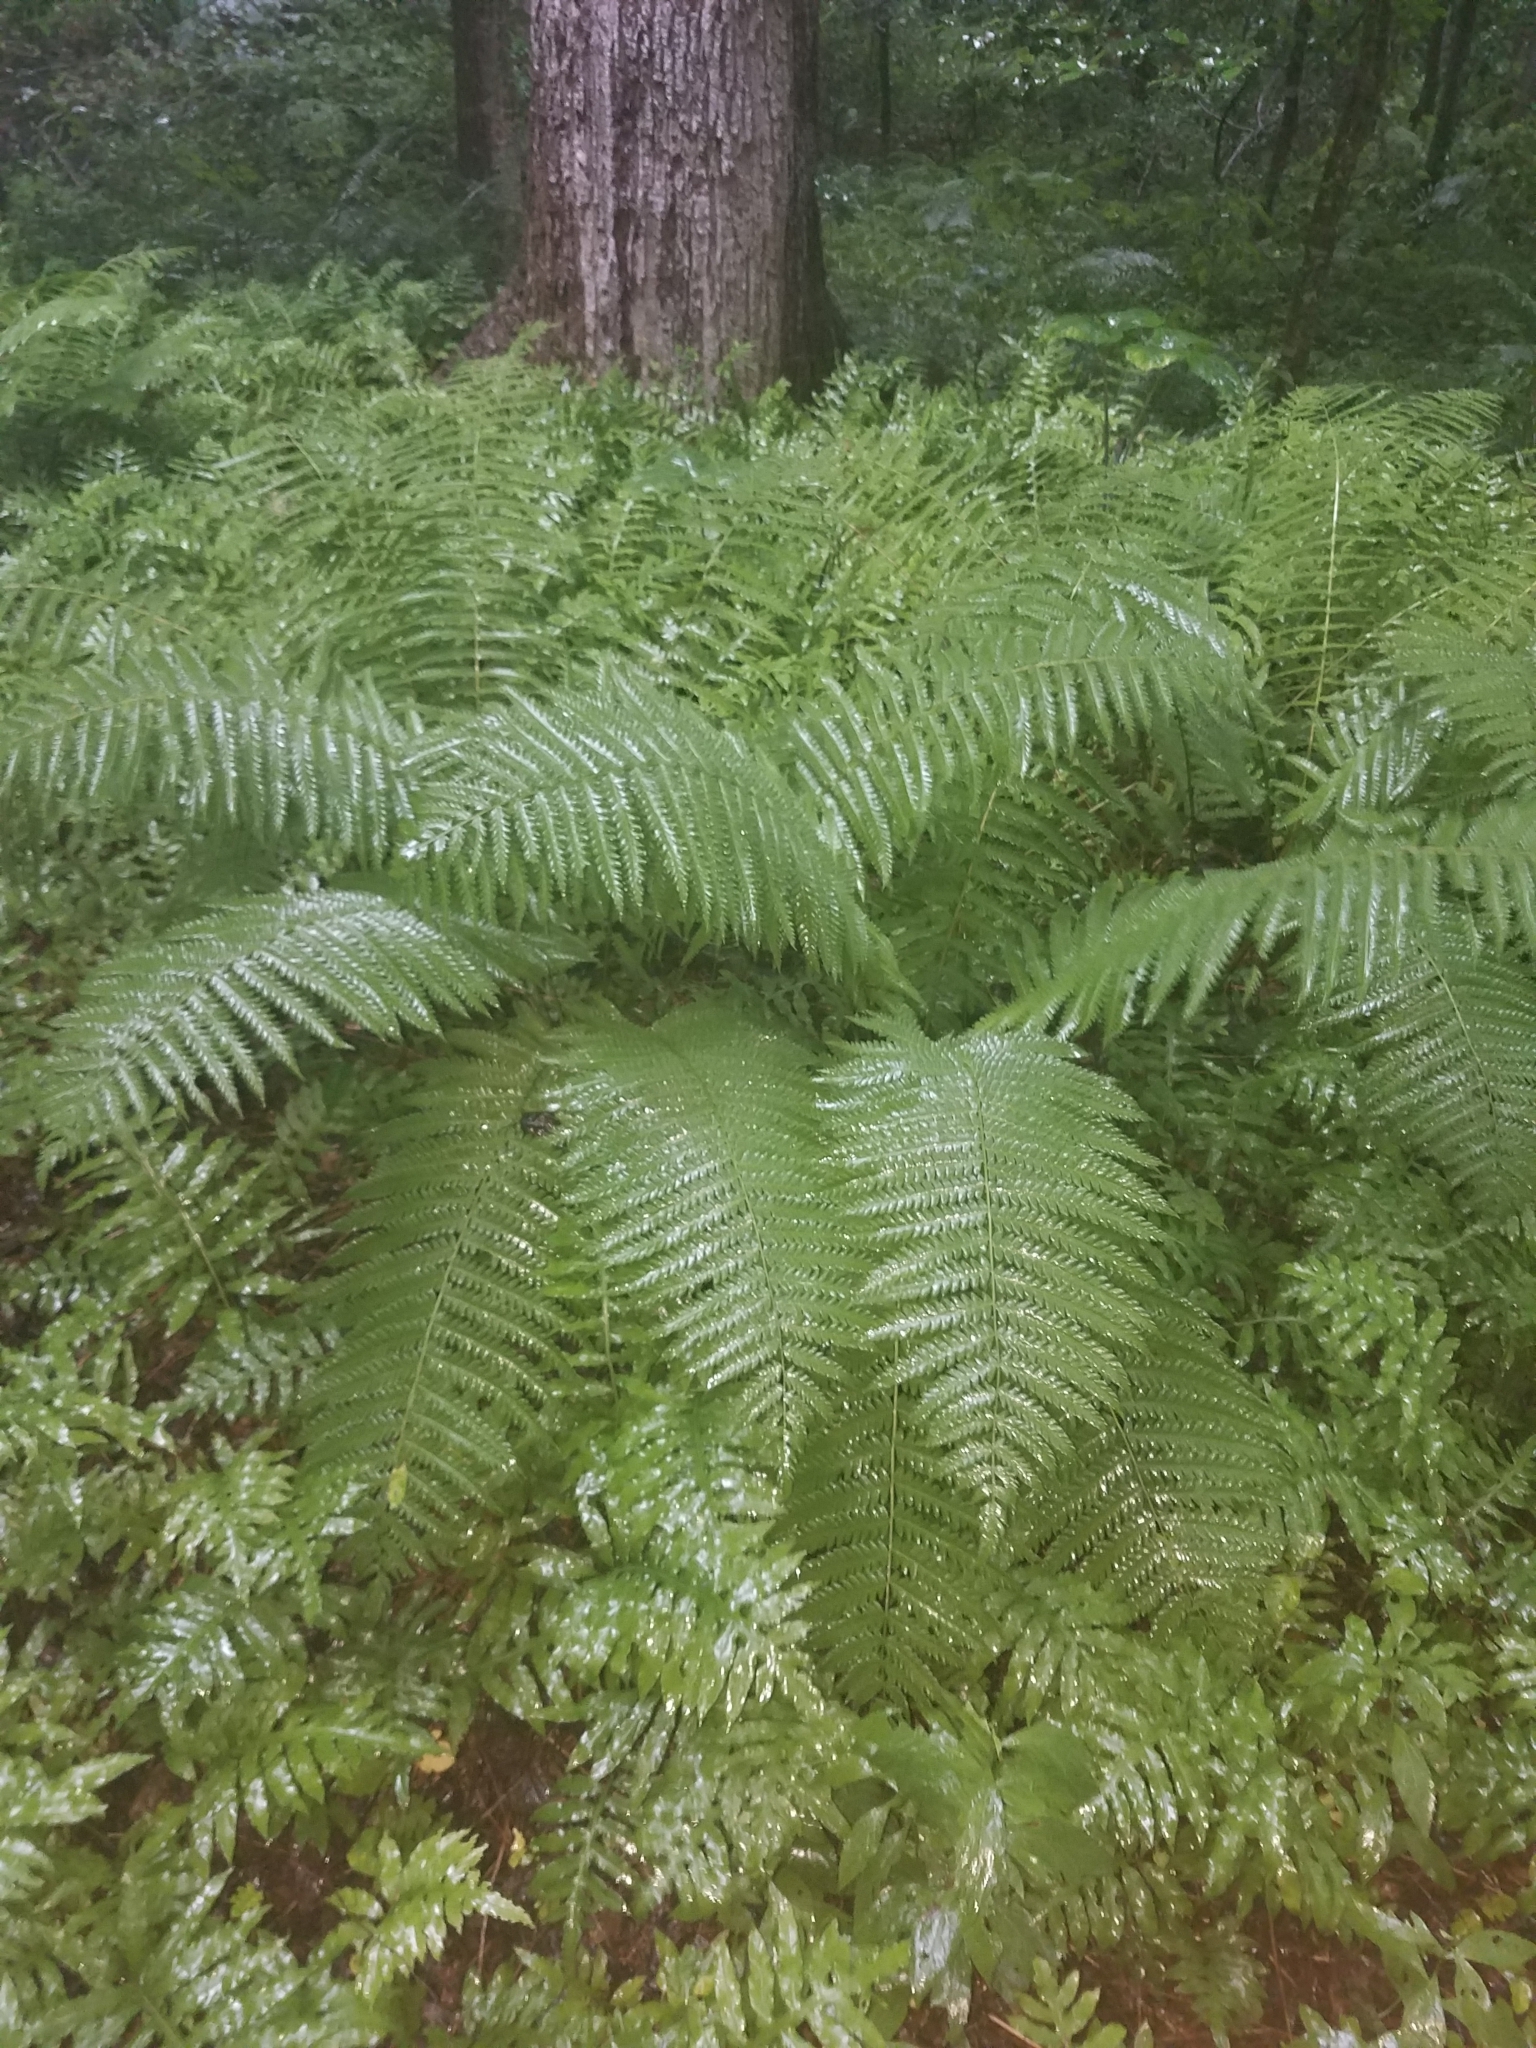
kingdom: Plantae
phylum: Tracheophyta
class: Polypodiopsida
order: Osmundales
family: Osmundaceae
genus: Osmundastrum
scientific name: Osmundastrum cinnamomeum
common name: Cinnamon fern
